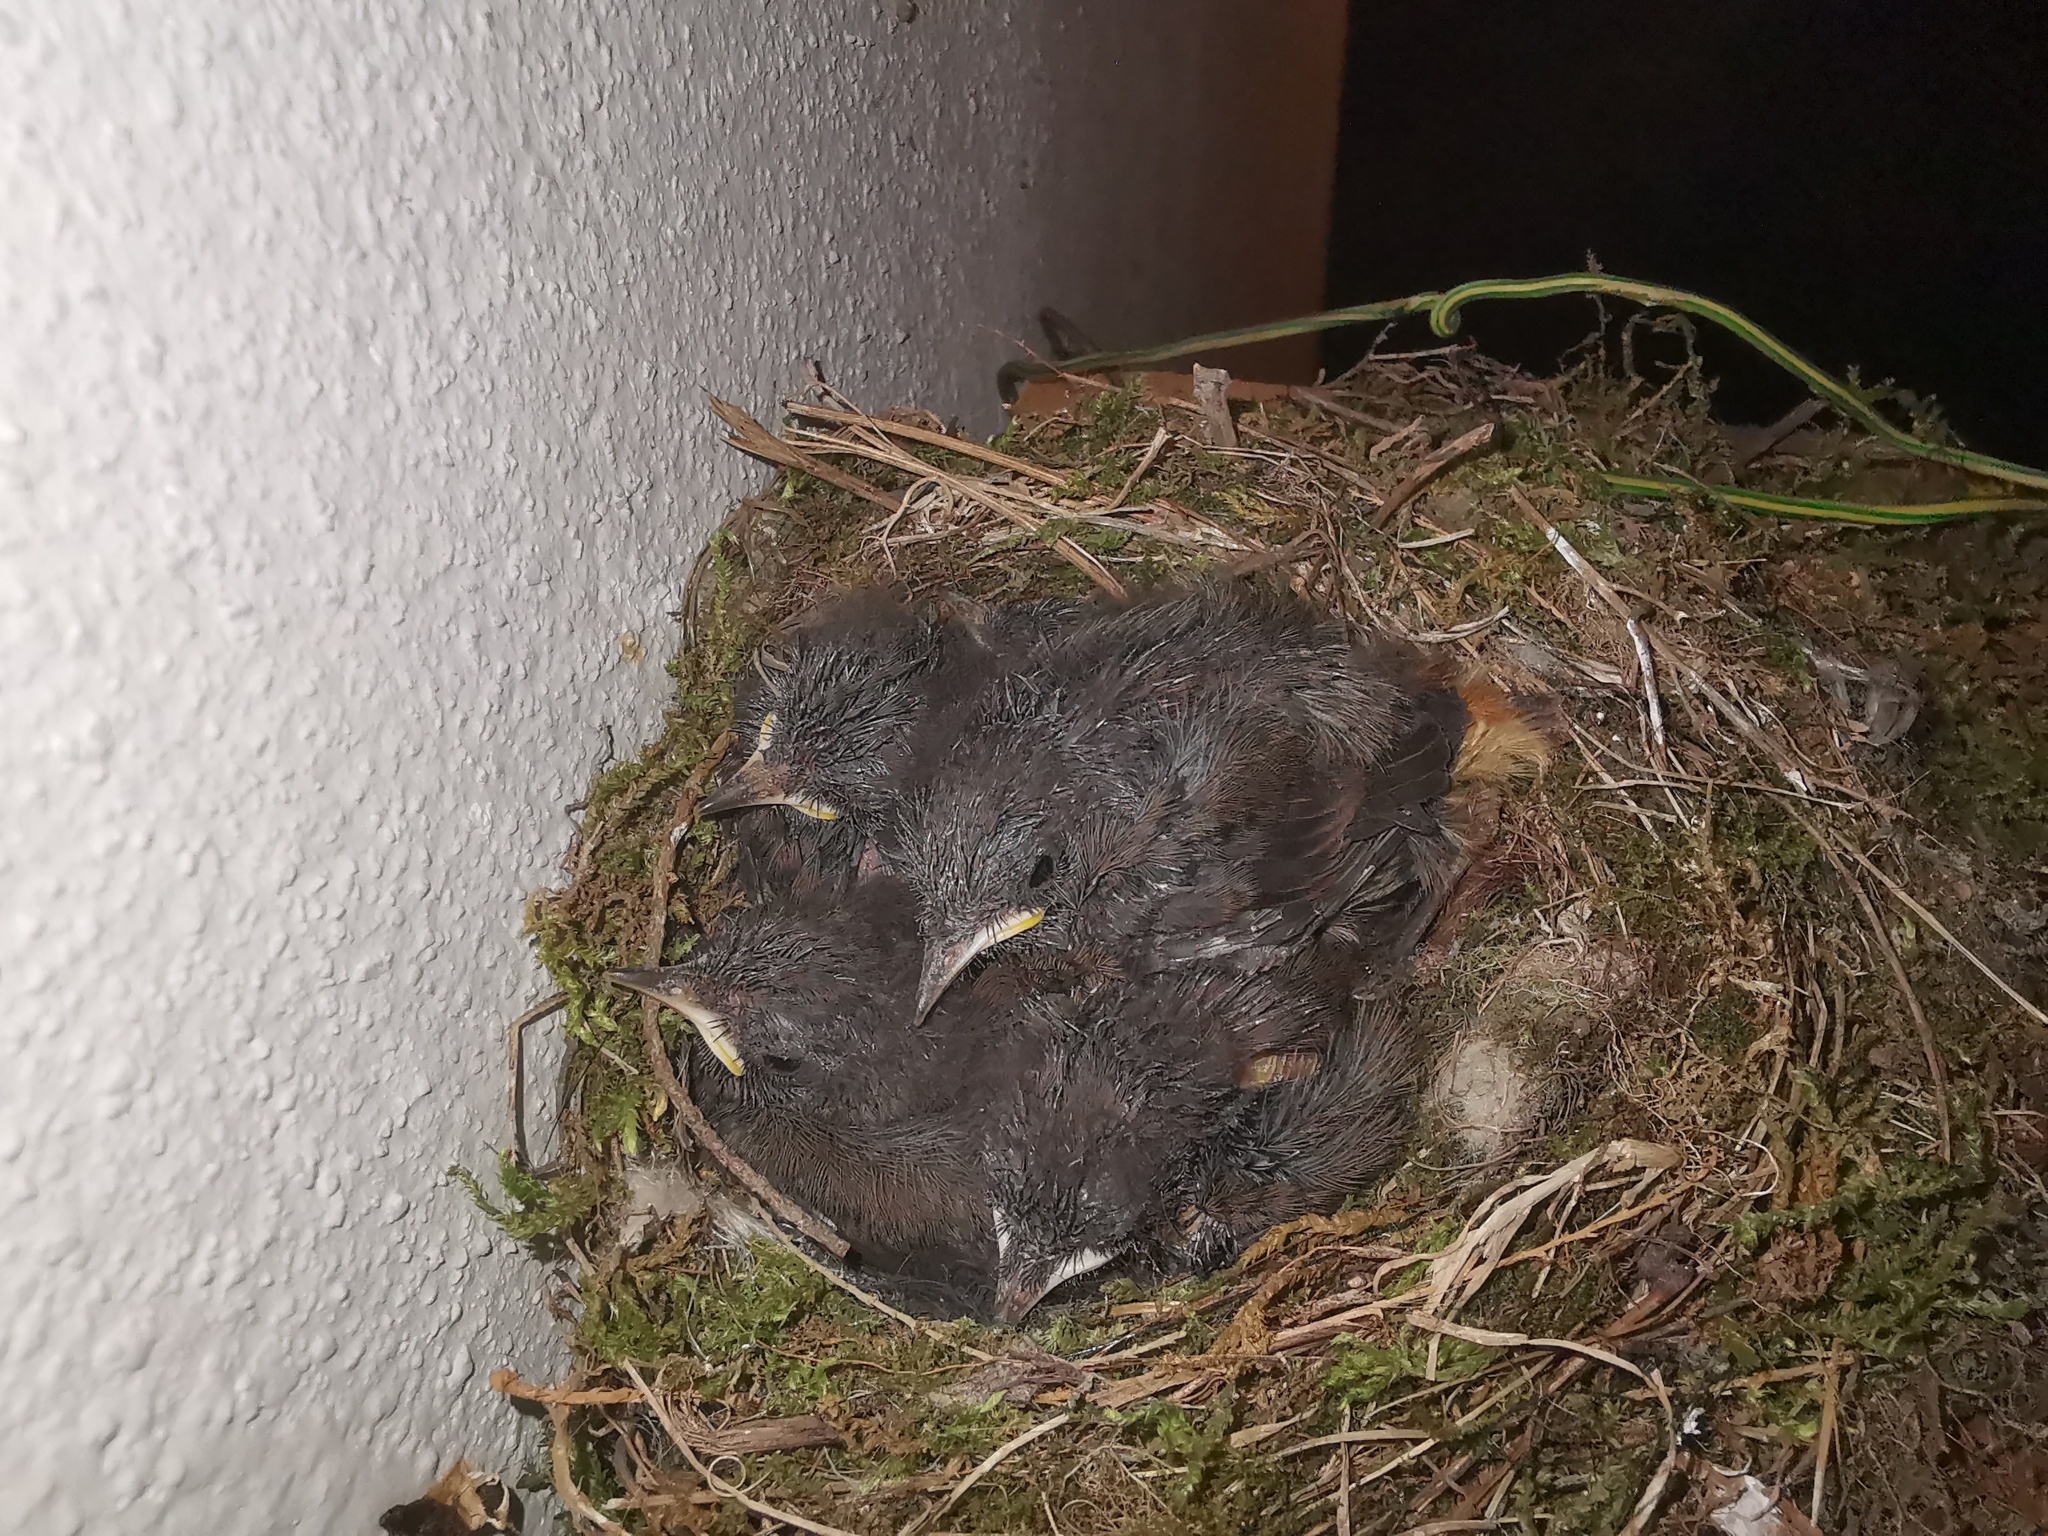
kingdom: Animalia
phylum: Chordata
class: Aves
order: Passeriformes
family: Muscicapidae
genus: Phoenicurus
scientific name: Phoenicurus ochruros
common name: Black redstart
